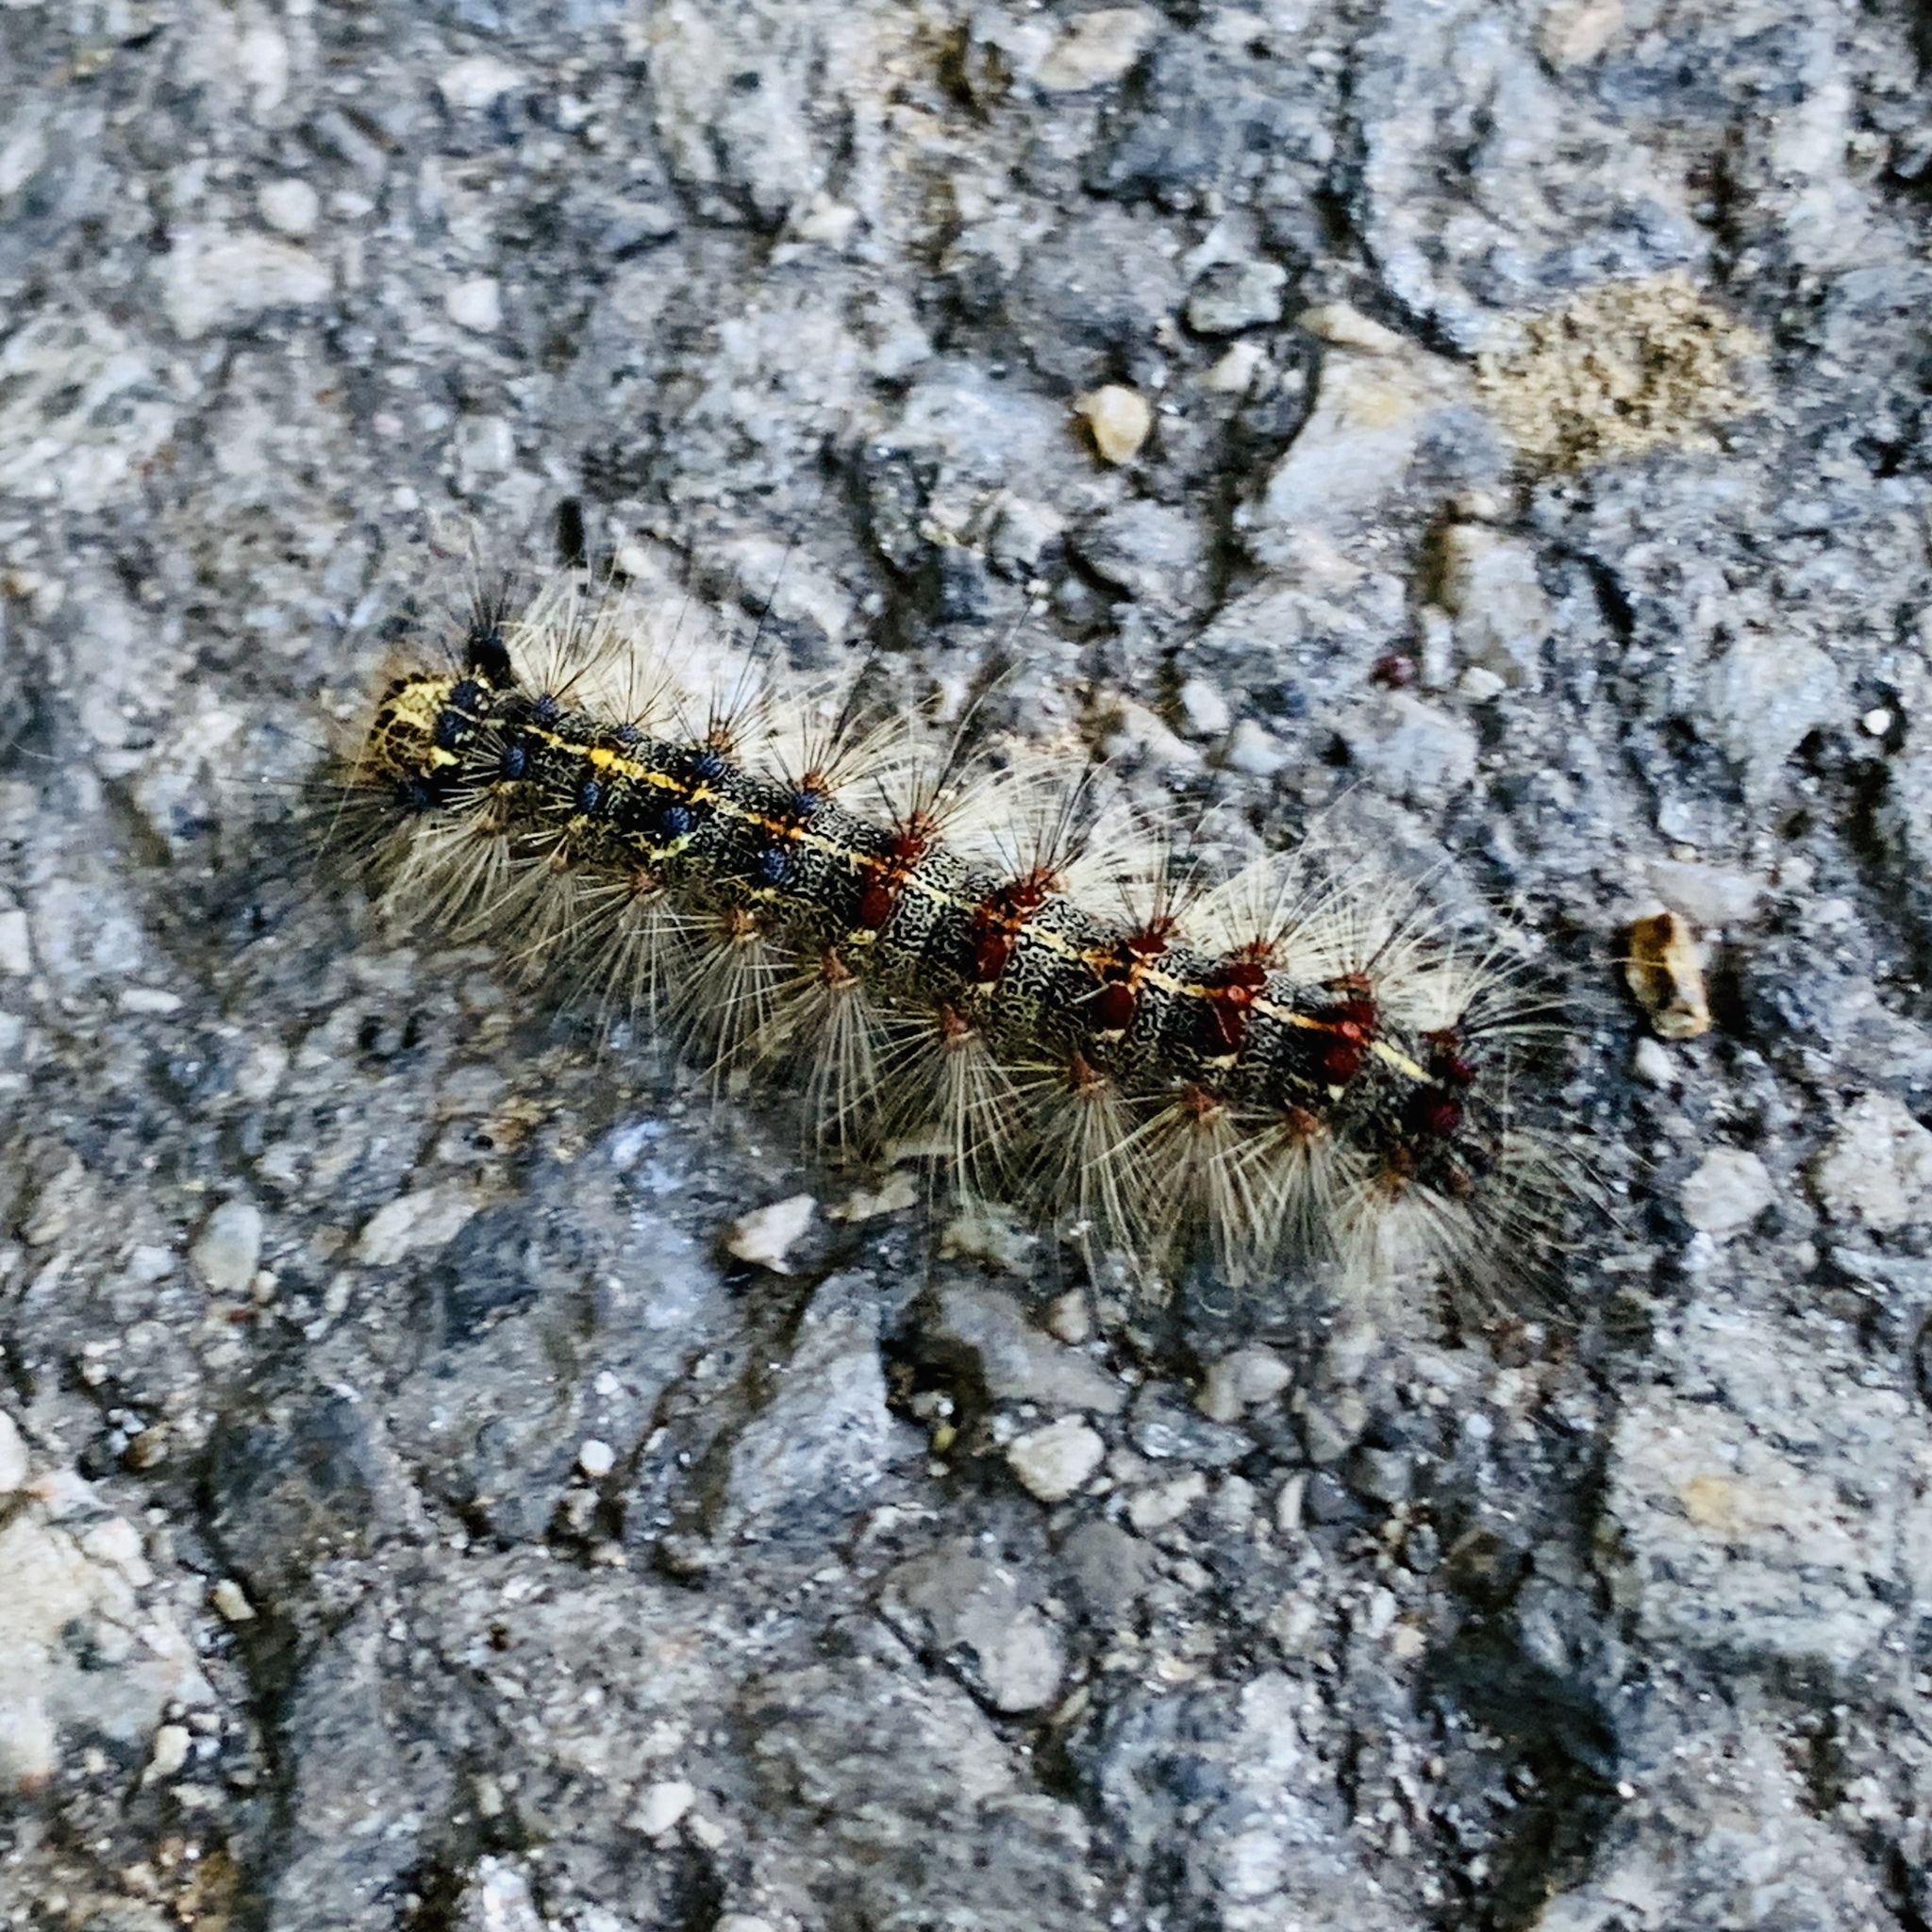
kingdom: Animalia
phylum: Arthropoda
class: Insecta
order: Lepidoptera
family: Erebidae
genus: Lymantria
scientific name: Lymantria dispar
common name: Gypsy moth
